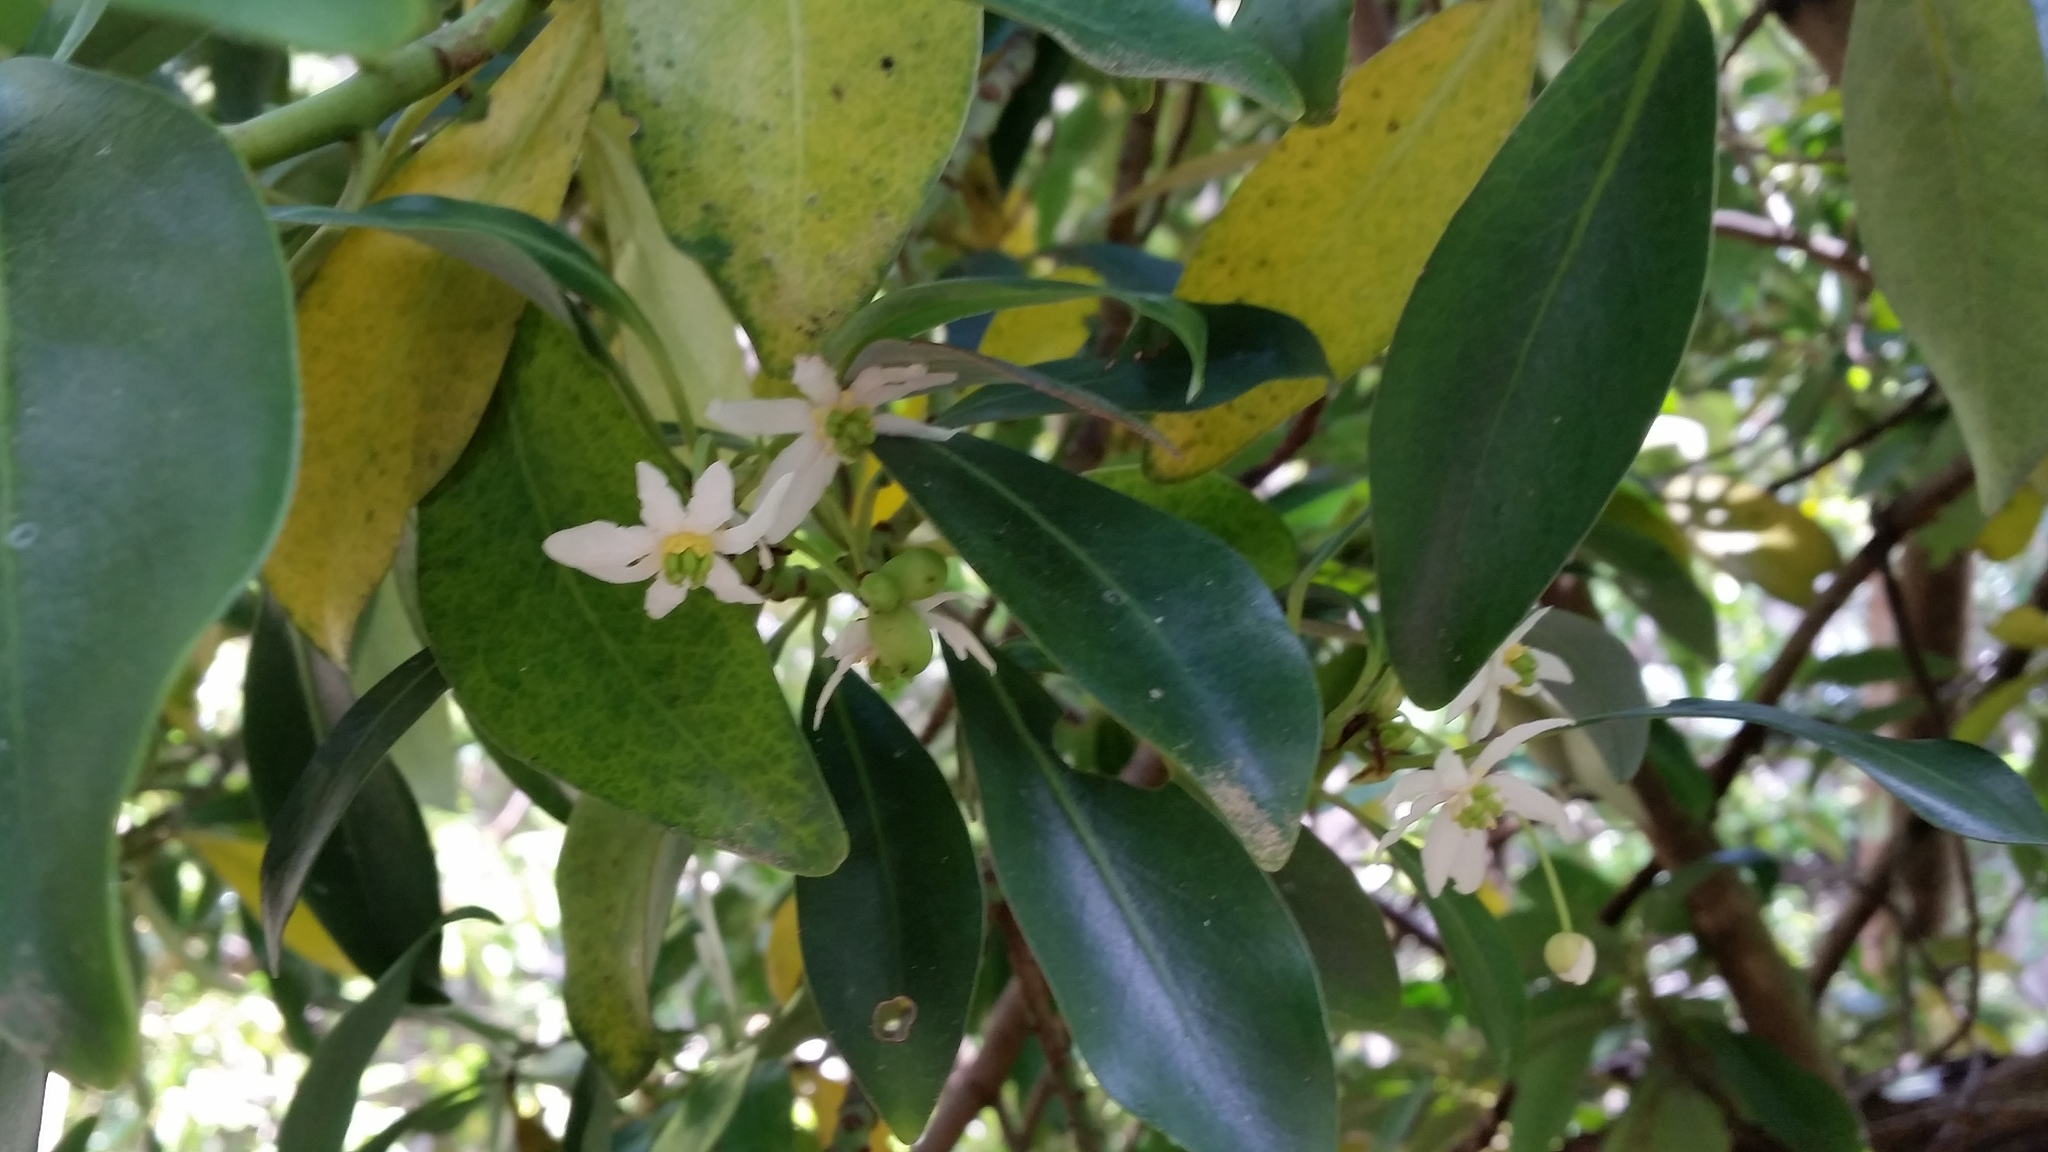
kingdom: Plantae
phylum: Tracheophyta
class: Magnoliopsida
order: Canellales
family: Winteraceae
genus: Drimys
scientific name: Drimys winteri
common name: Winter's-bark
